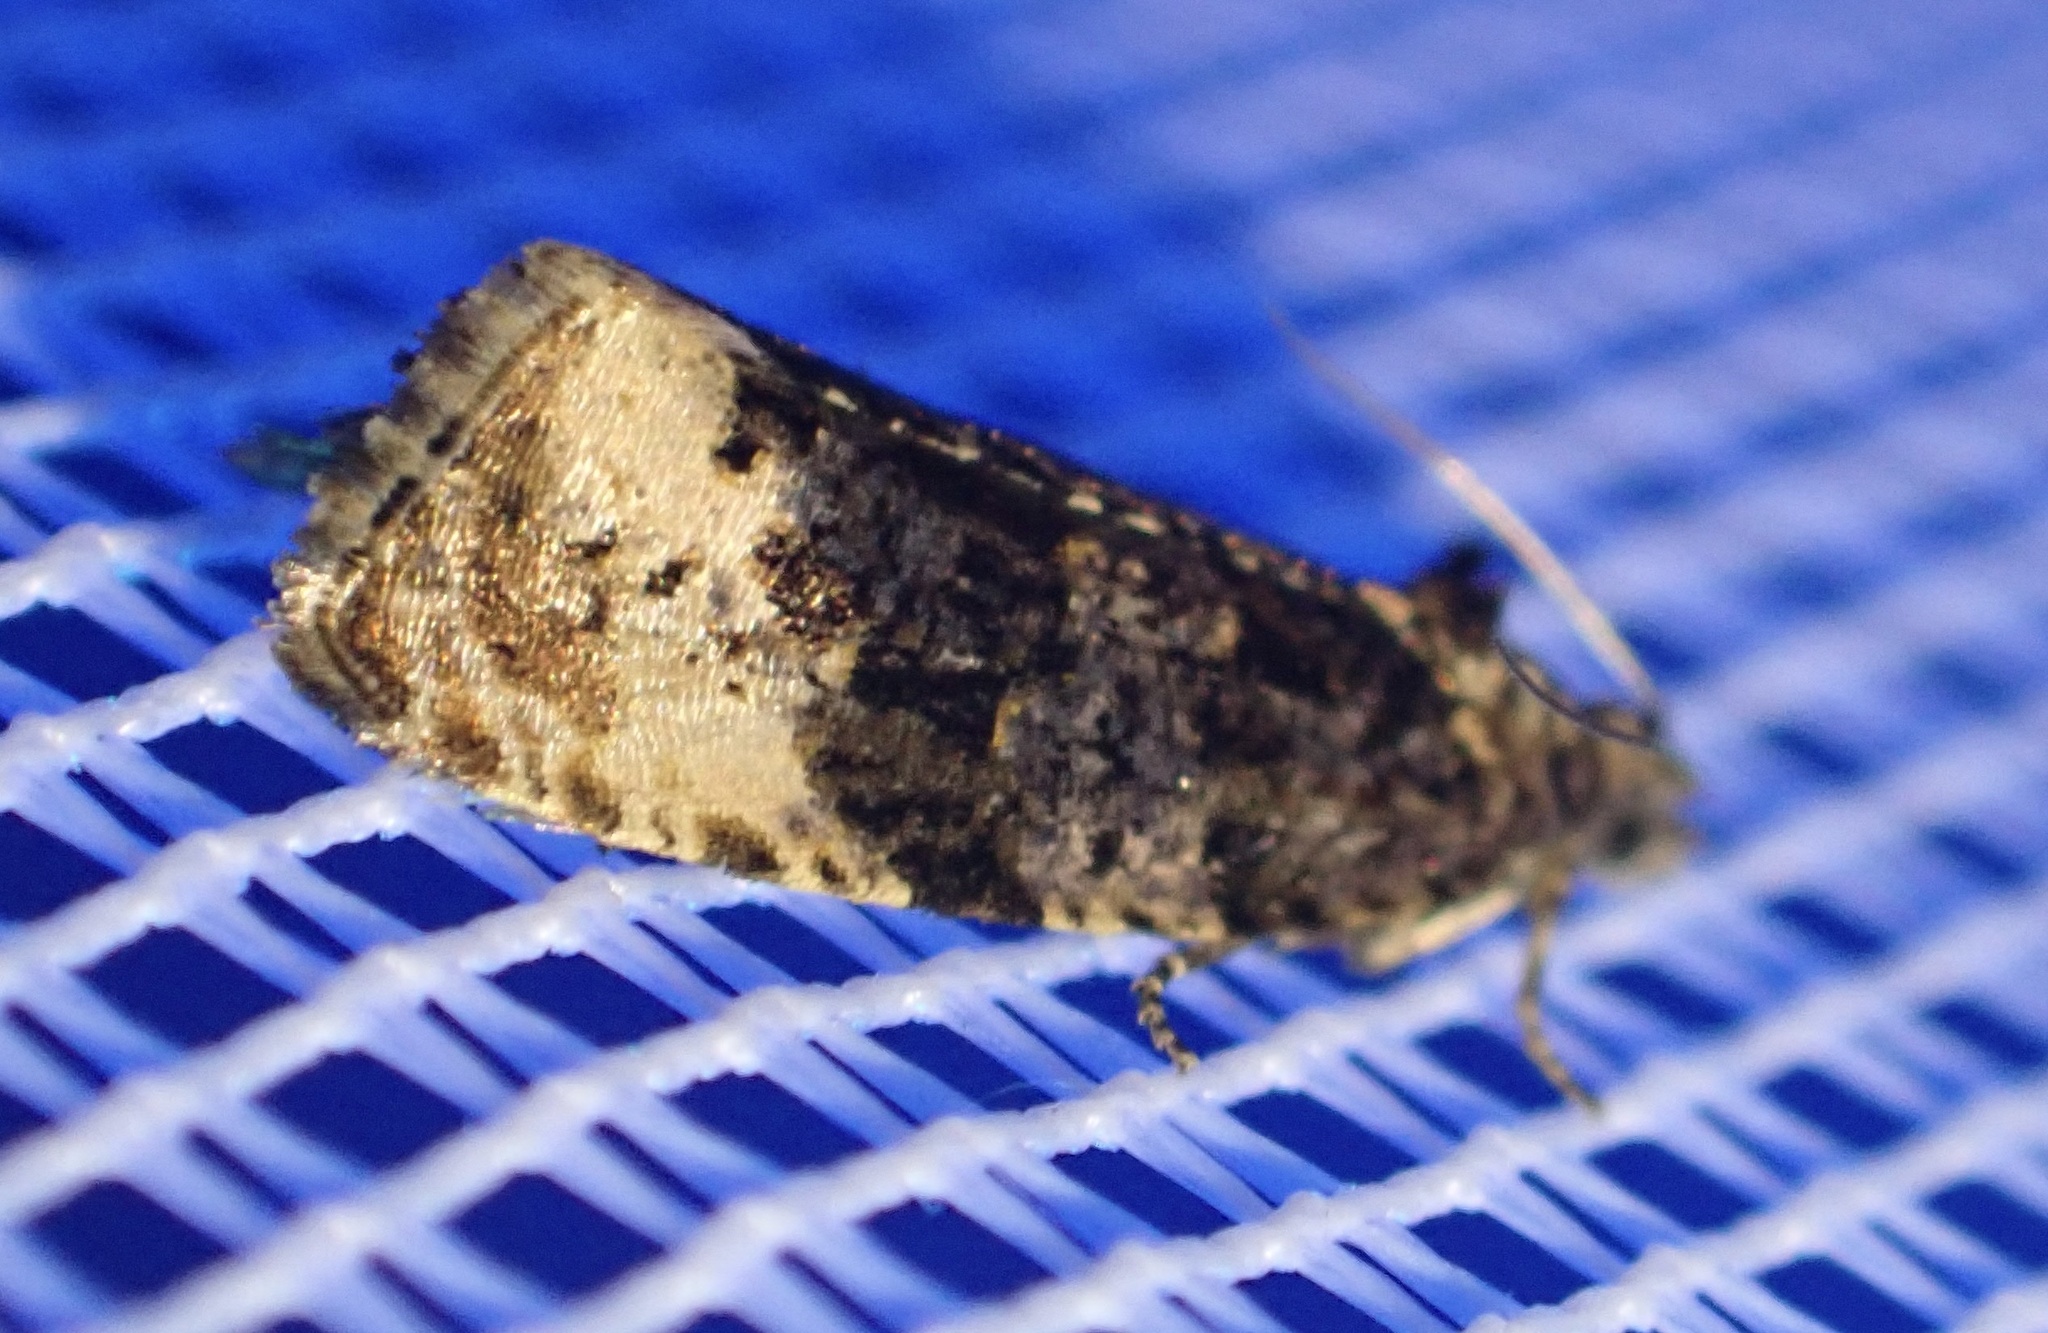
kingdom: Animalia
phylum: Arthropoda
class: Insecta
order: Lepidoptera
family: Tortricidae
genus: Hedya
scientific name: Hedya ochroleucana
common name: Buff-tipped marble
